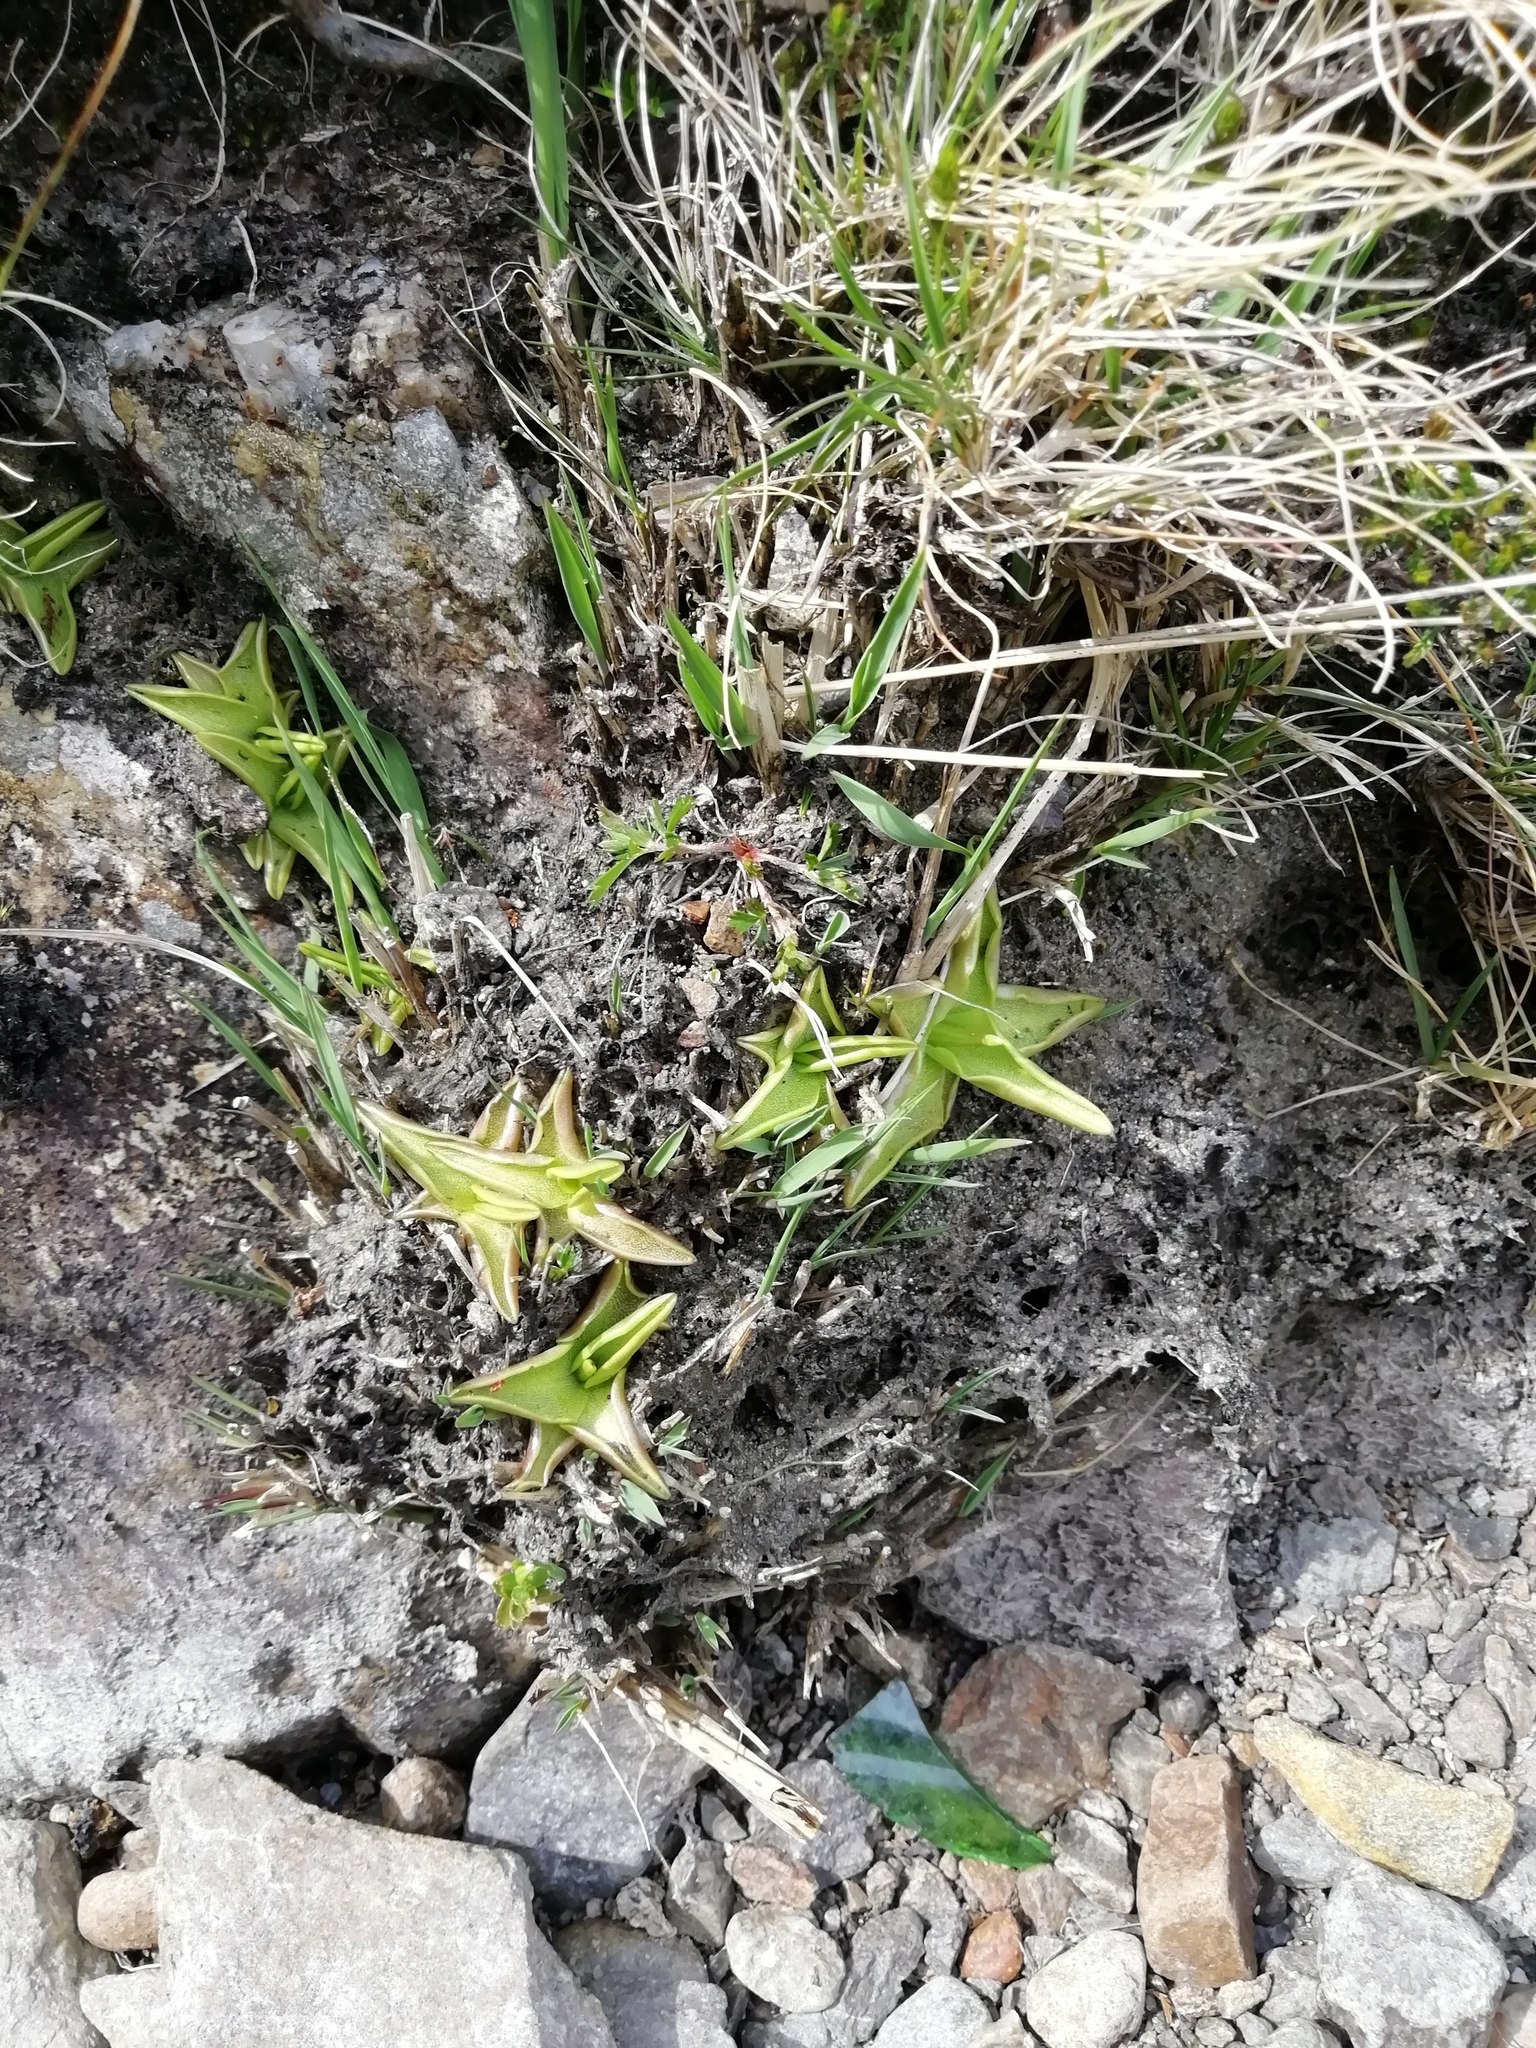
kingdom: Plantae
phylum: Tracheophyta
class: Magnoliopsida
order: Lamiales
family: Lentibulariaceae
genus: Pinguicula
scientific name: Pinguicula vulgaris
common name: Common butterwort
